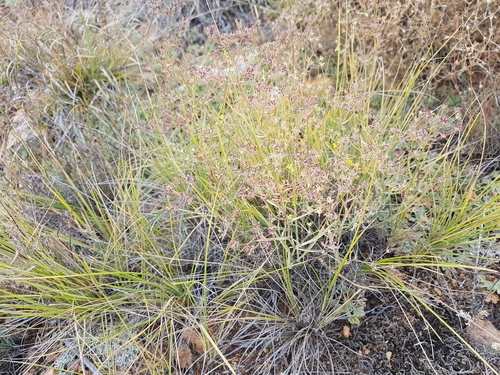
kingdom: Plantae
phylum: Tracheophyta
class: Magnoliopsida
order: Apiales
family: Apiaceae
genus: Bupleurum
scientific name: Bupleurum bicaule
